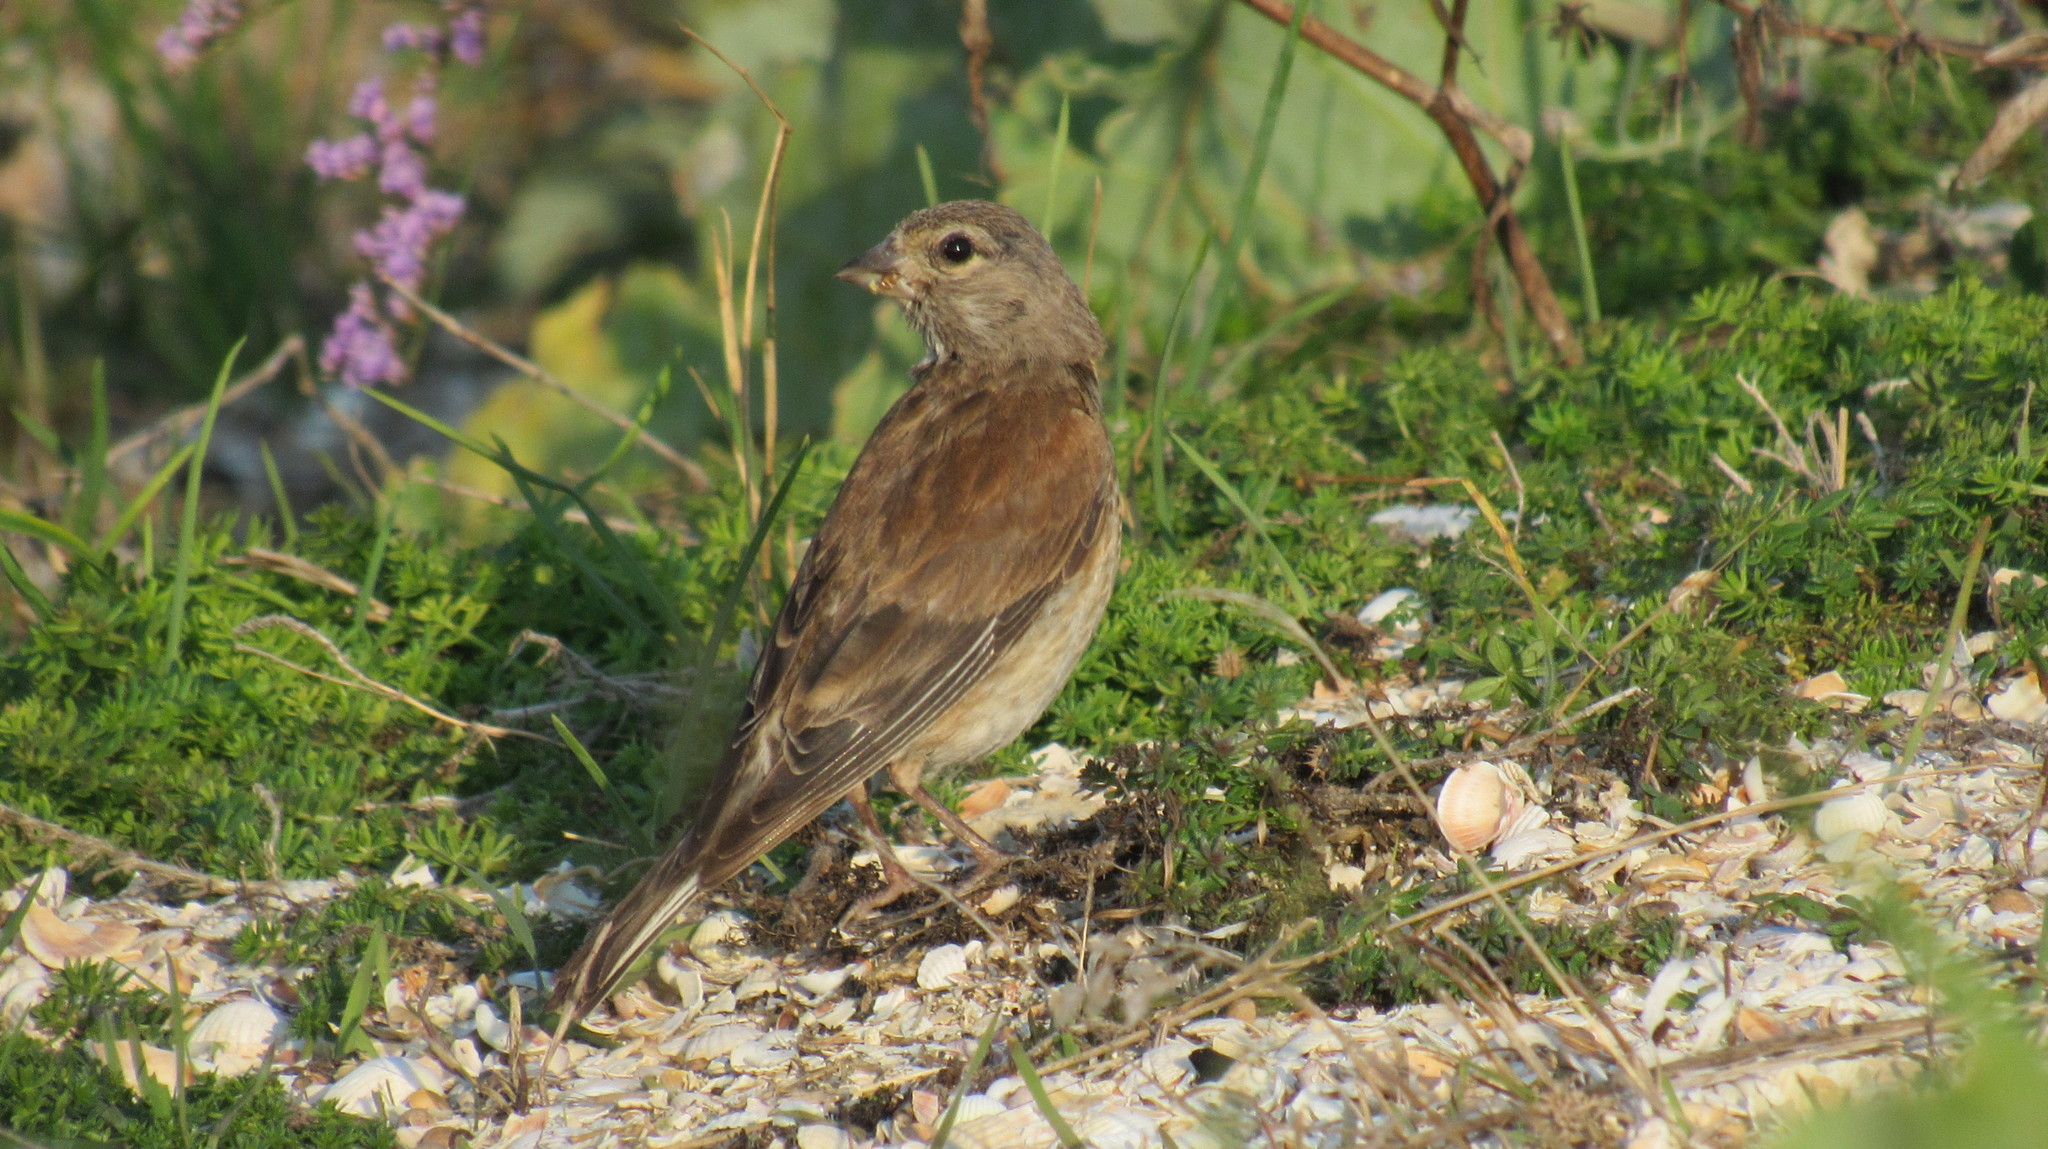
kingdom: Animalia
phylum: Chordata
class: Aves
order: Passeriformes
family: Fringillidae
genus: Linaria
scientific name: Linaria cannabina
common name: Common linnet
